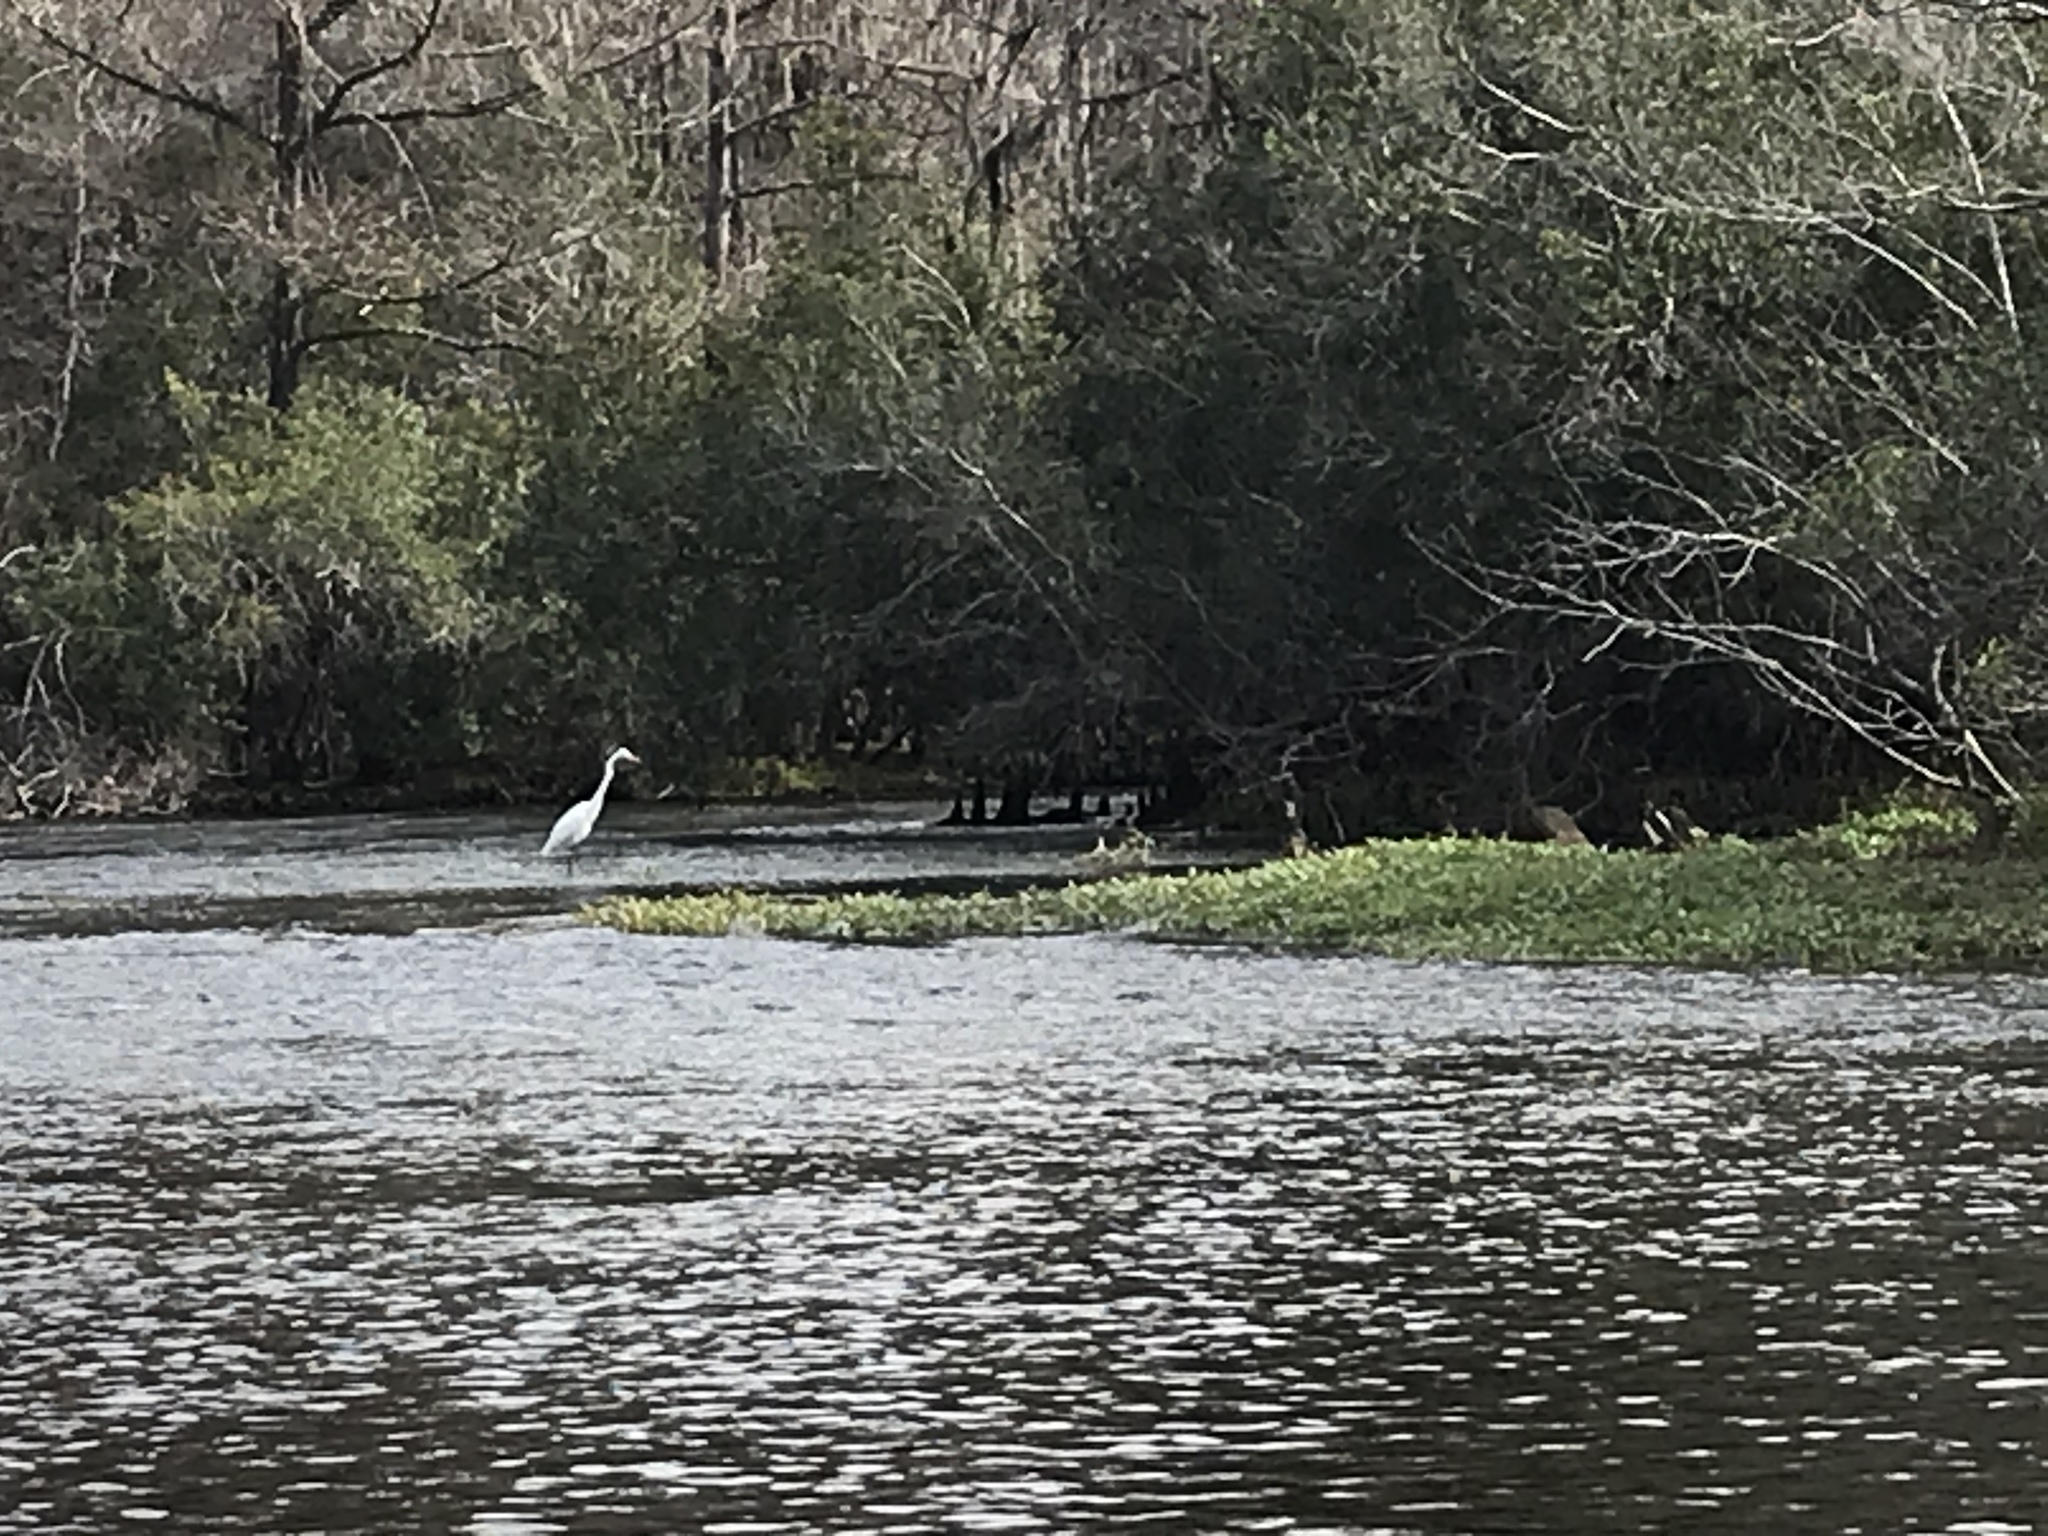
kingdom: Animalia
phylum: Chordata
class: Aves
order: Pelecaniformes
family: Ardeidae
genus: Ardea
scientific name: Ardea alba
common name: Great egret
